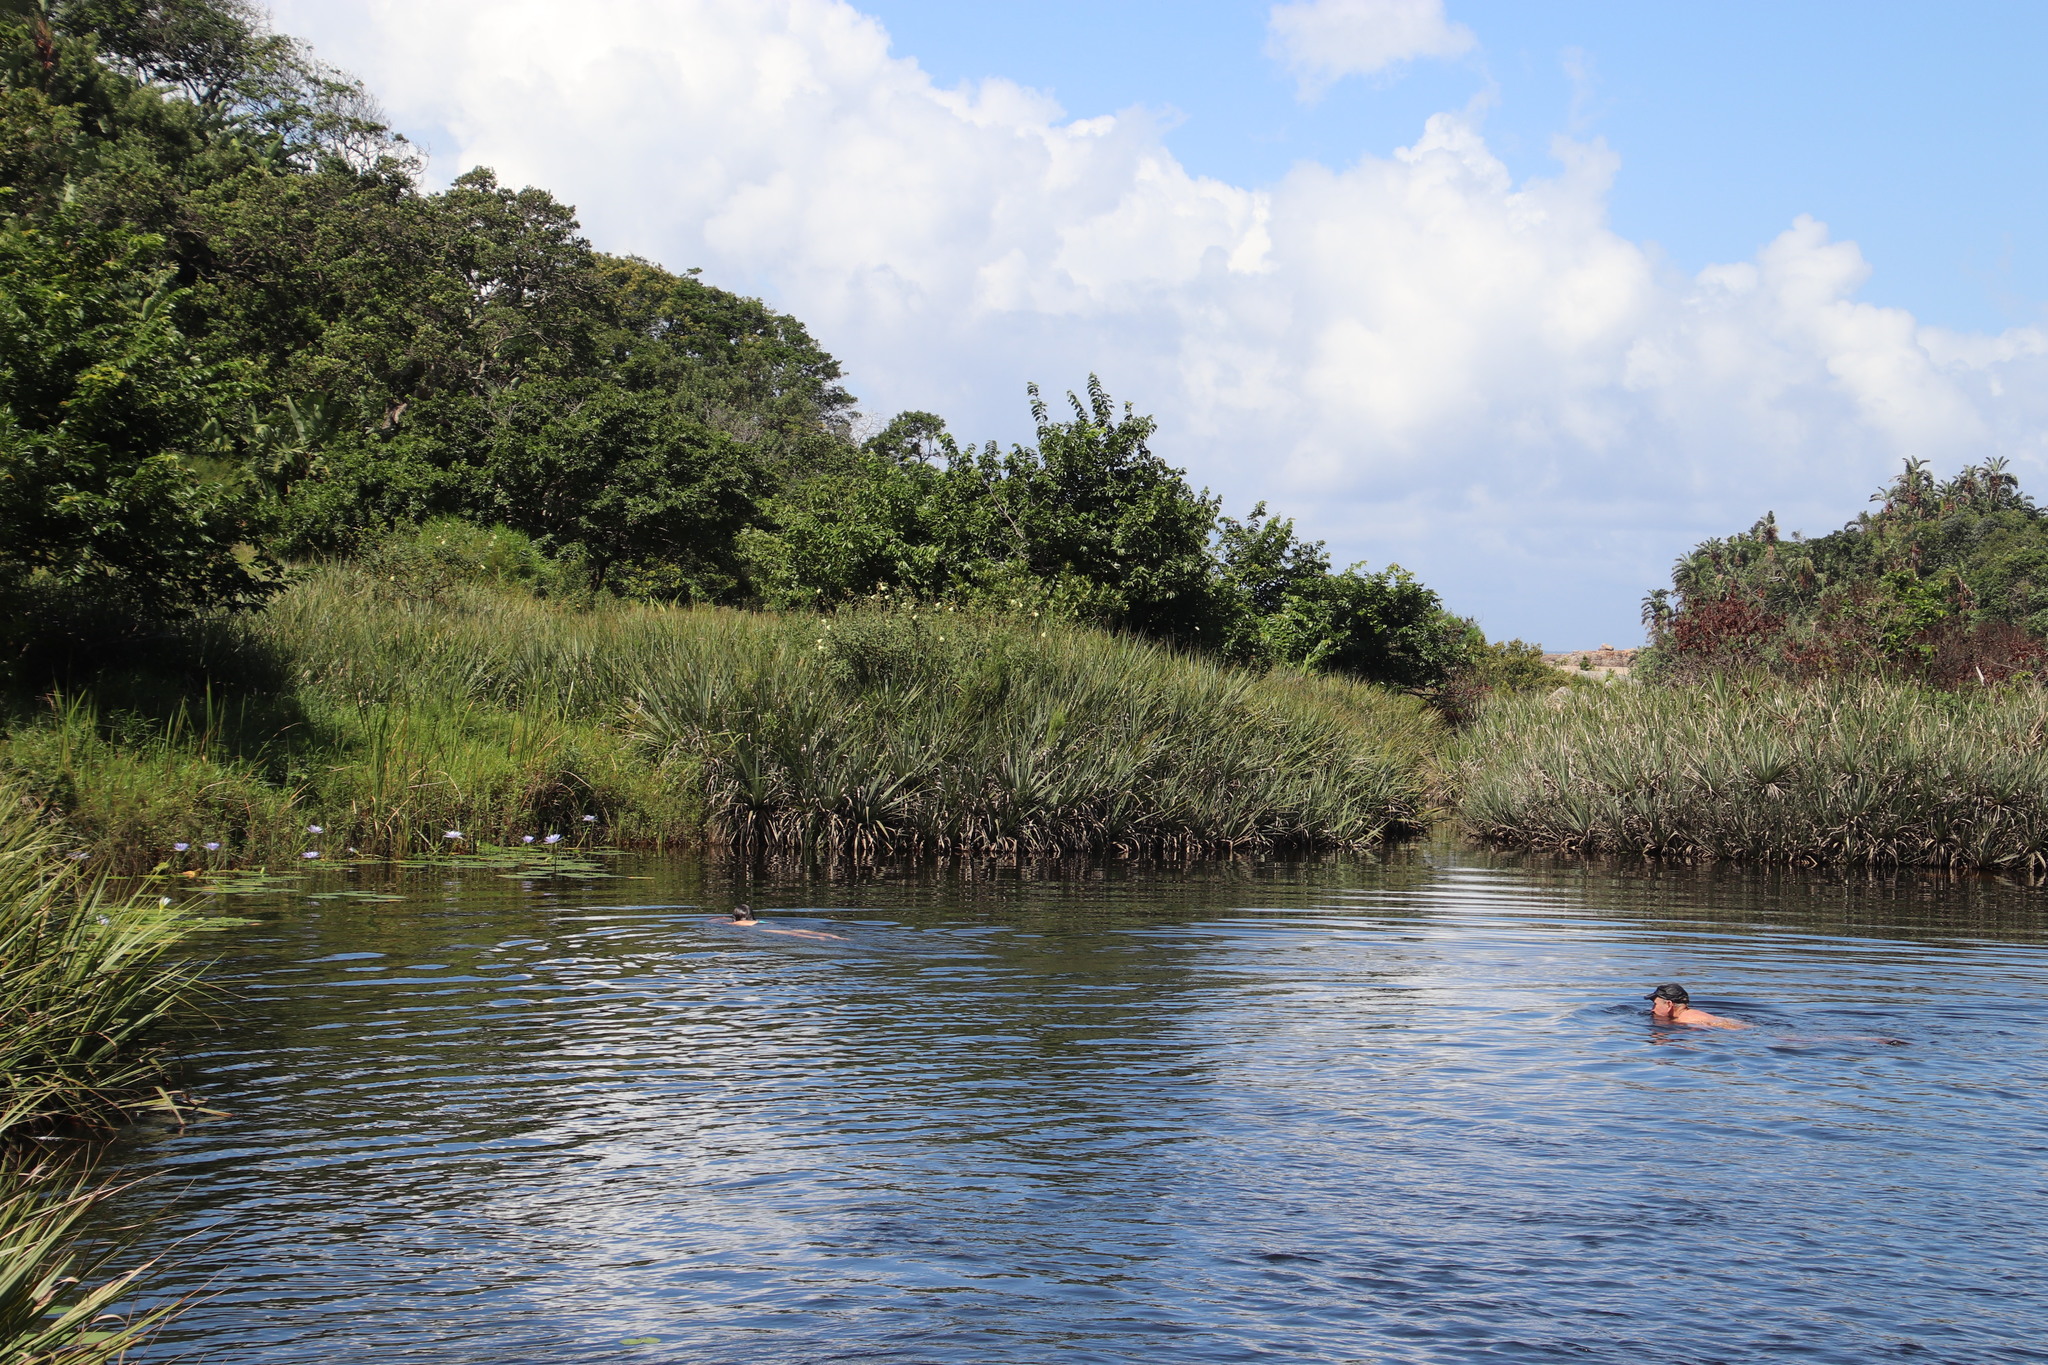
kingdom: Plantae
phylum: Tracheophyta
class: Liliopsida
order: Poales
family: Thurniaceae
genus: Prionium
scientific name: Prionium serratum
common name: Palmiet
